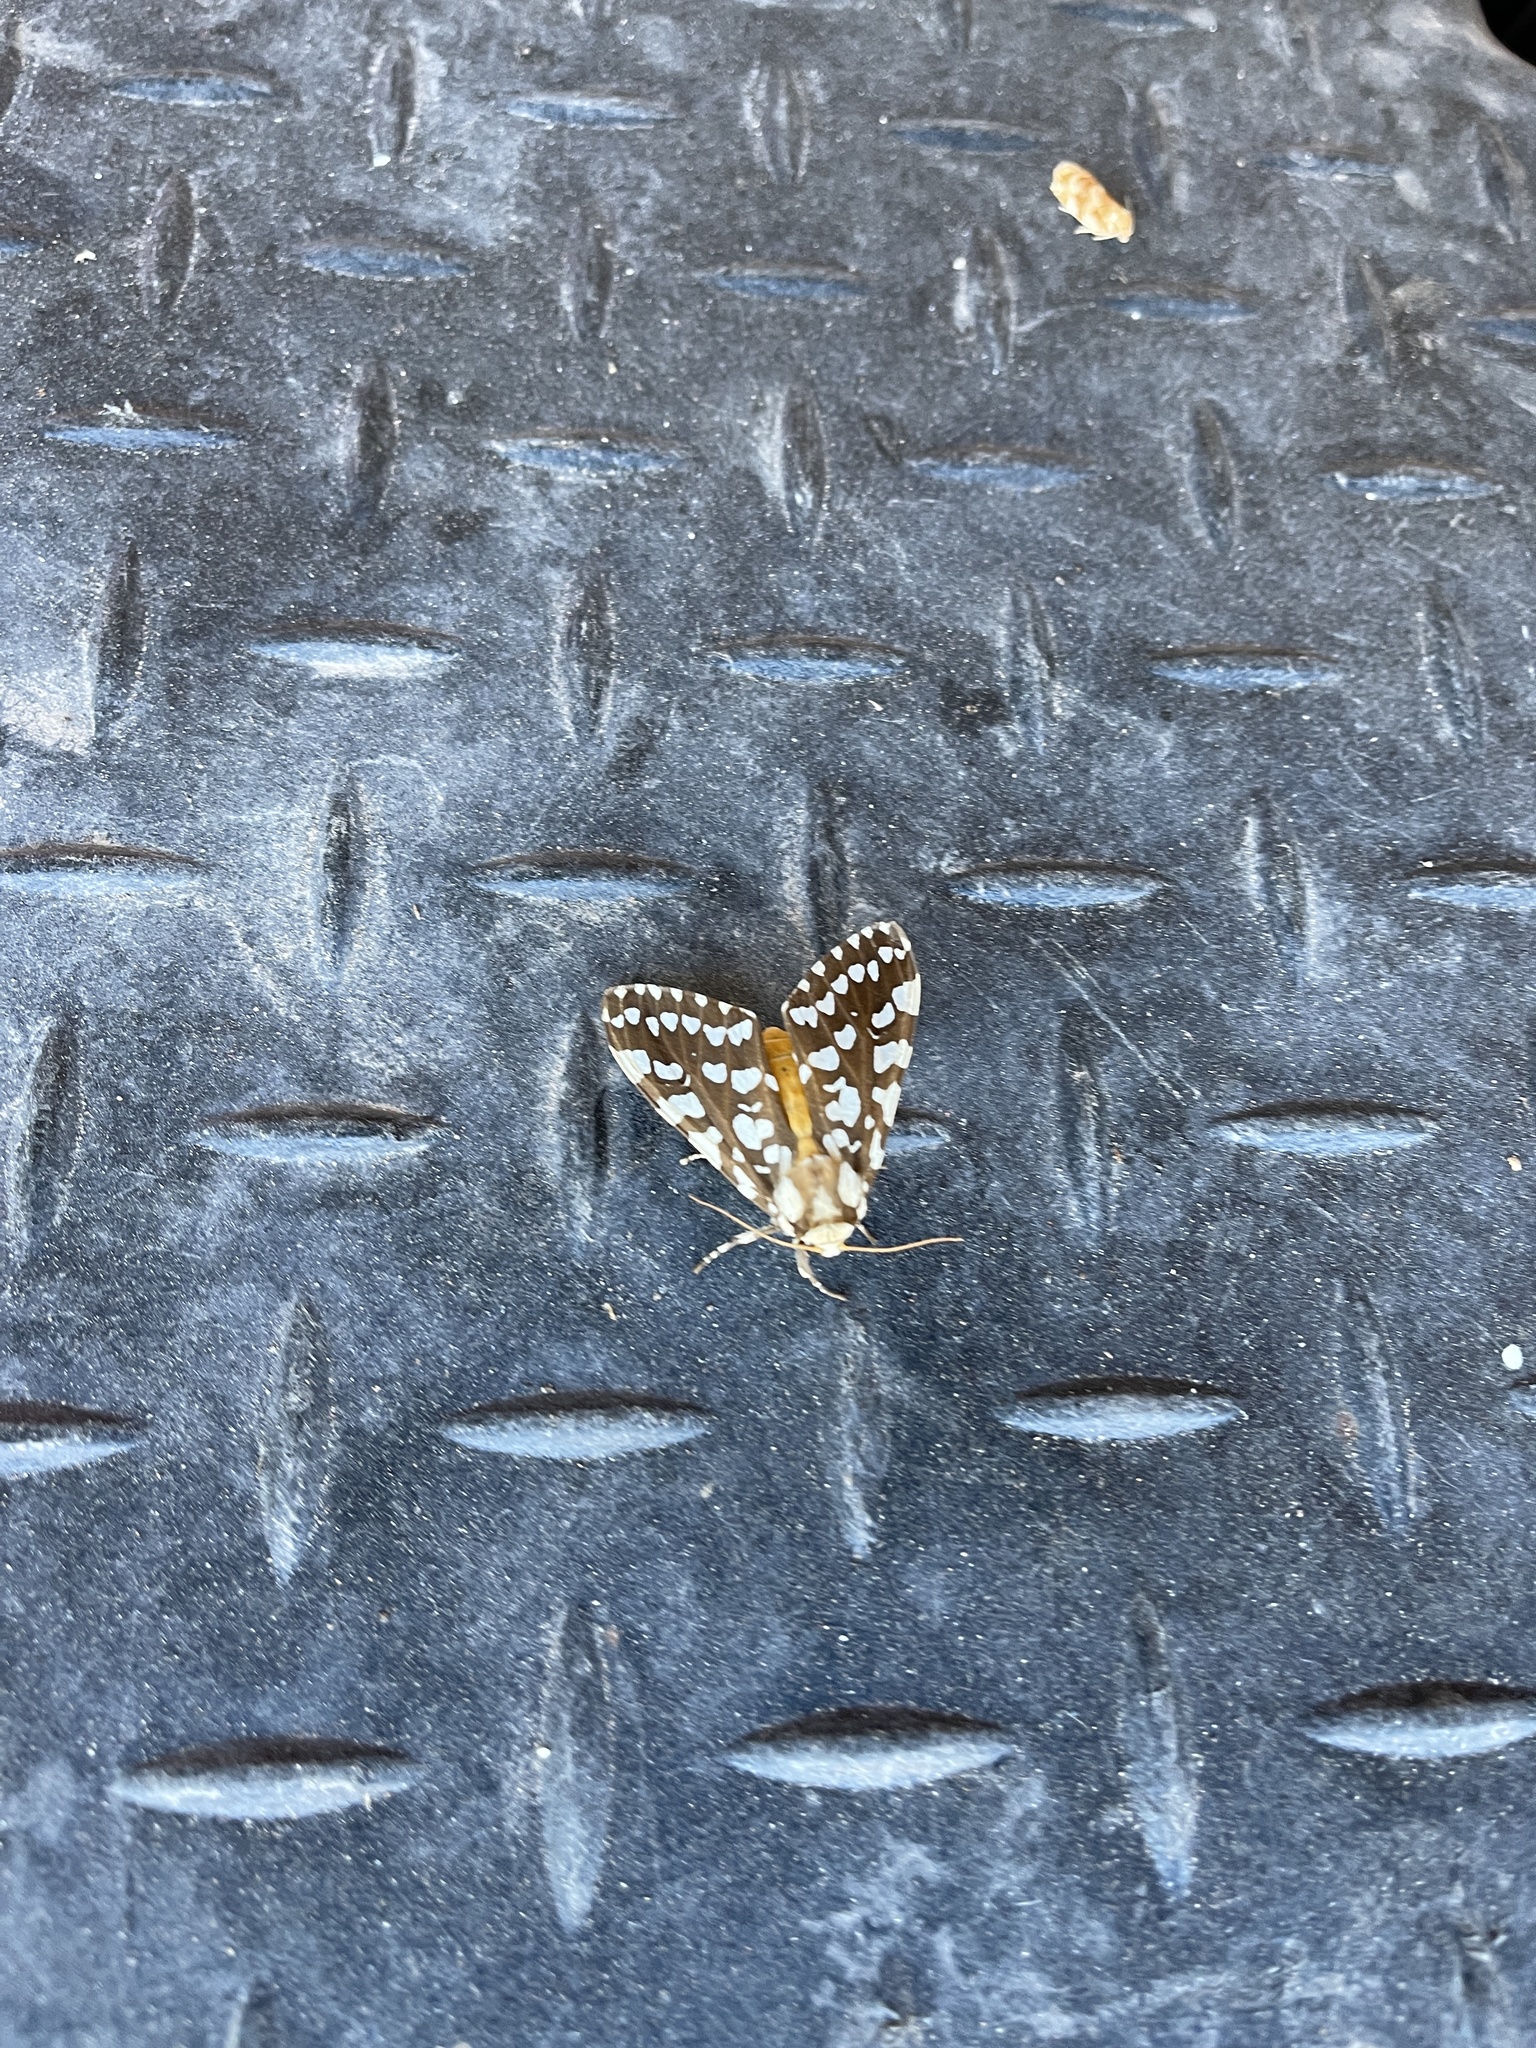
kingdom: Animalia
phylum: Arthropoda
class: Insecta
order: Lepidoptera
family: Erebidae
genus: Lophocampa
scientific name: Lophocampa ingens
